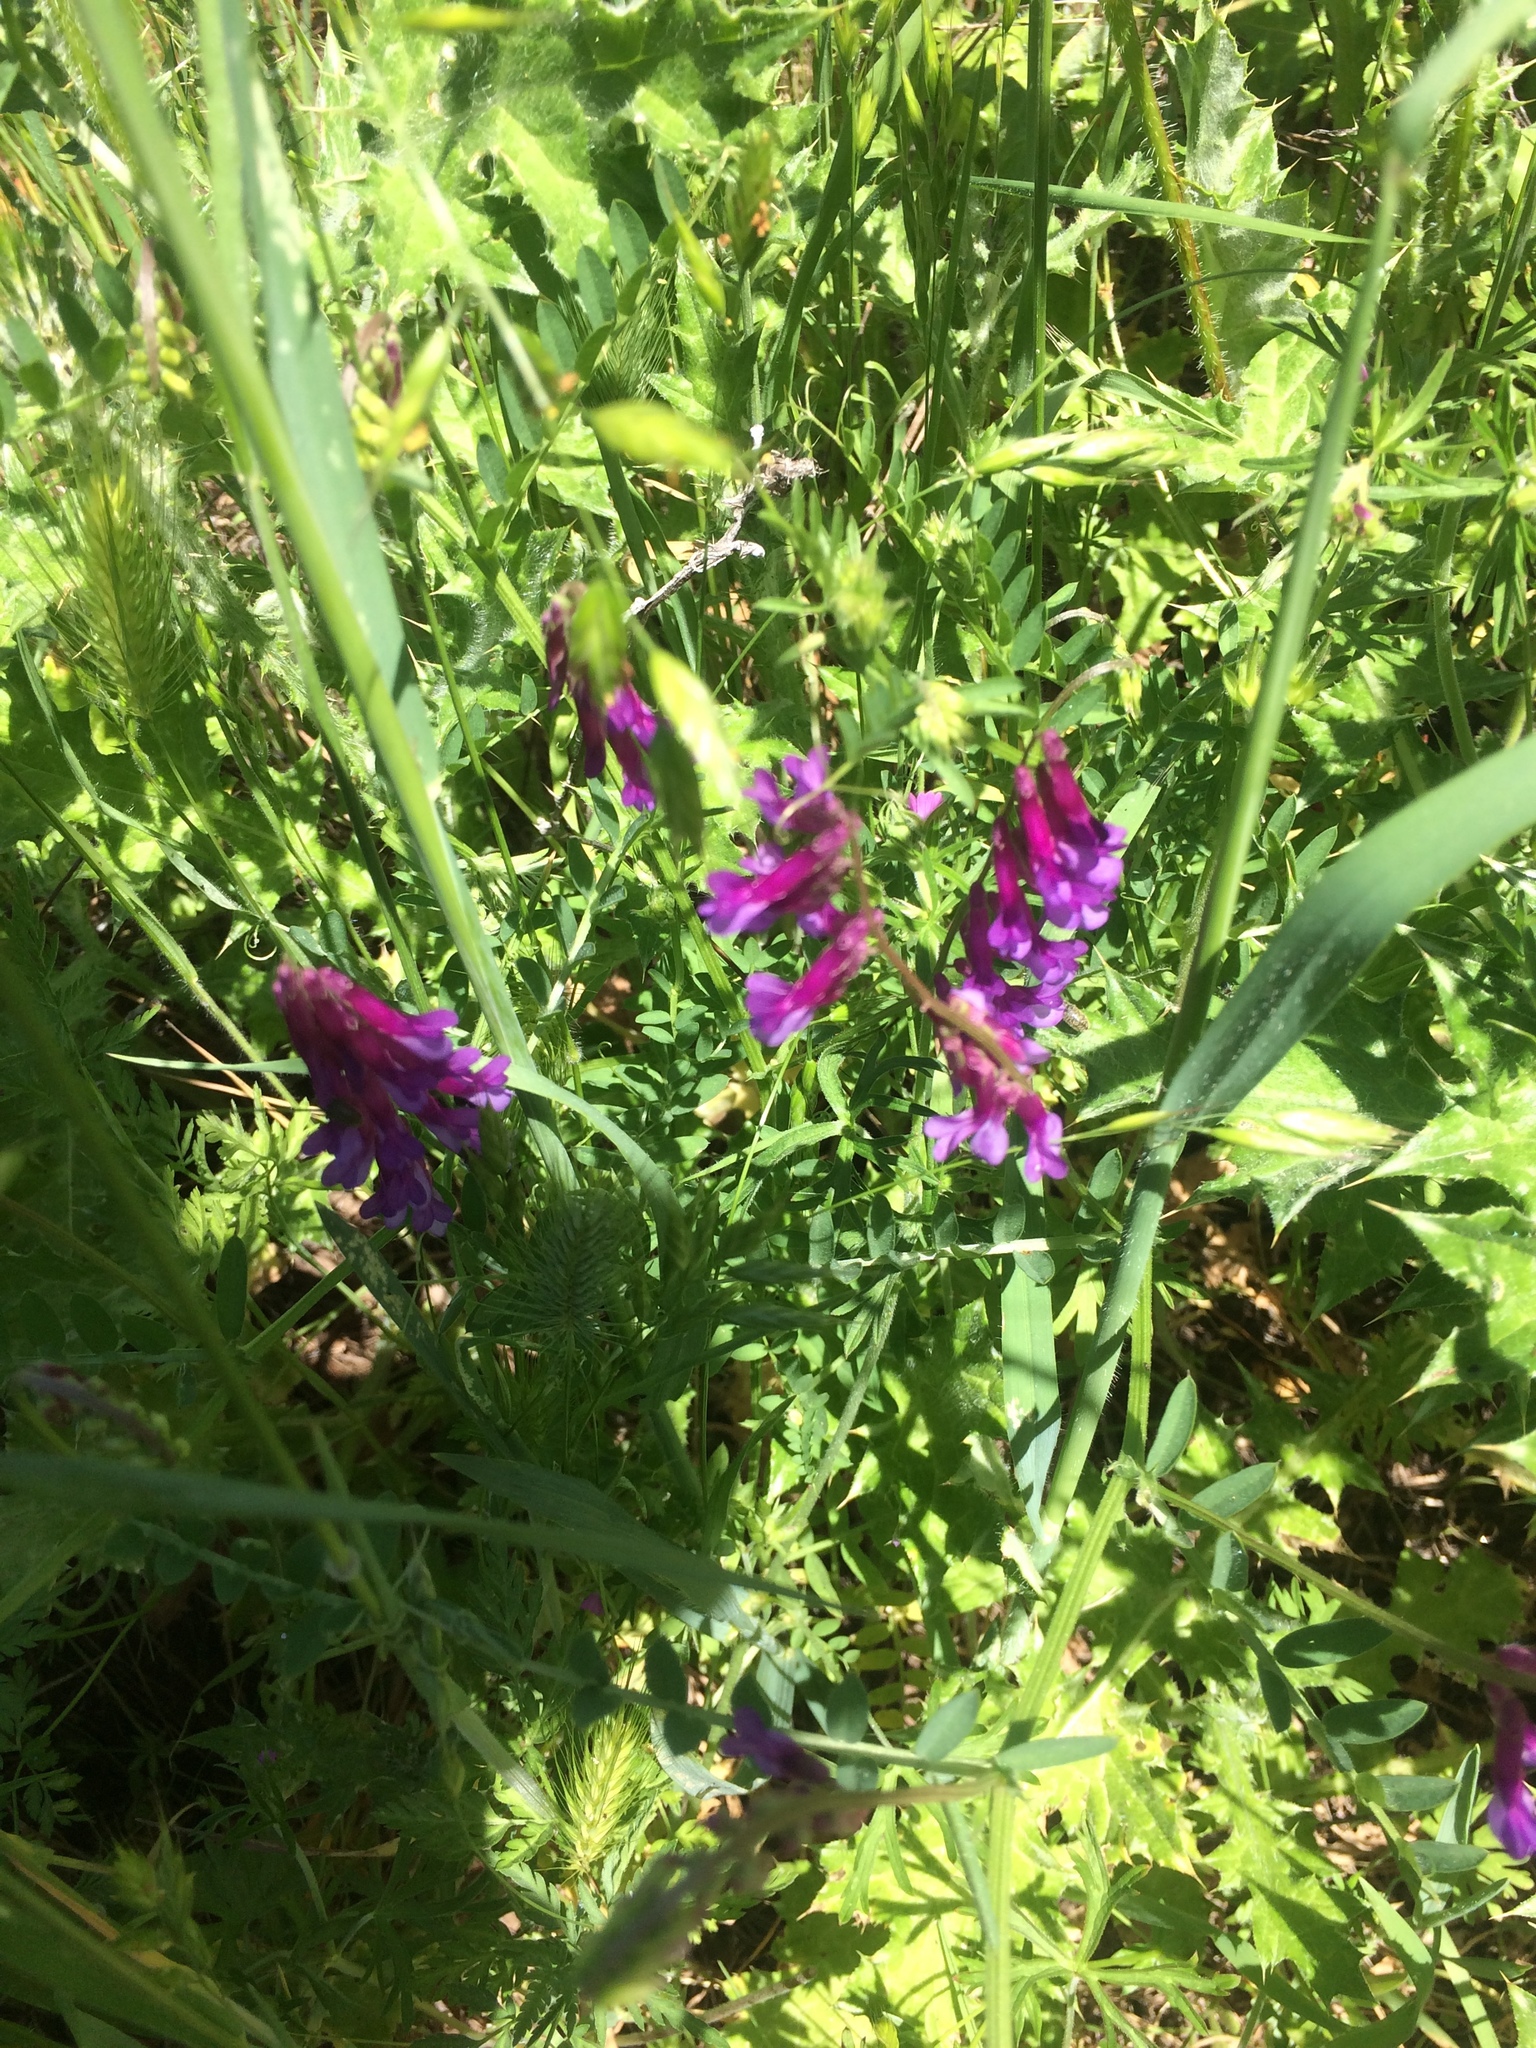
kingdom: Plantae
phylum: Tracheophyta
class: Magnoliopsida
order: Fabales
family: Fabaceae
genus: Vicia
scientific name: Vicia villosa
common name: Fodder vetch
